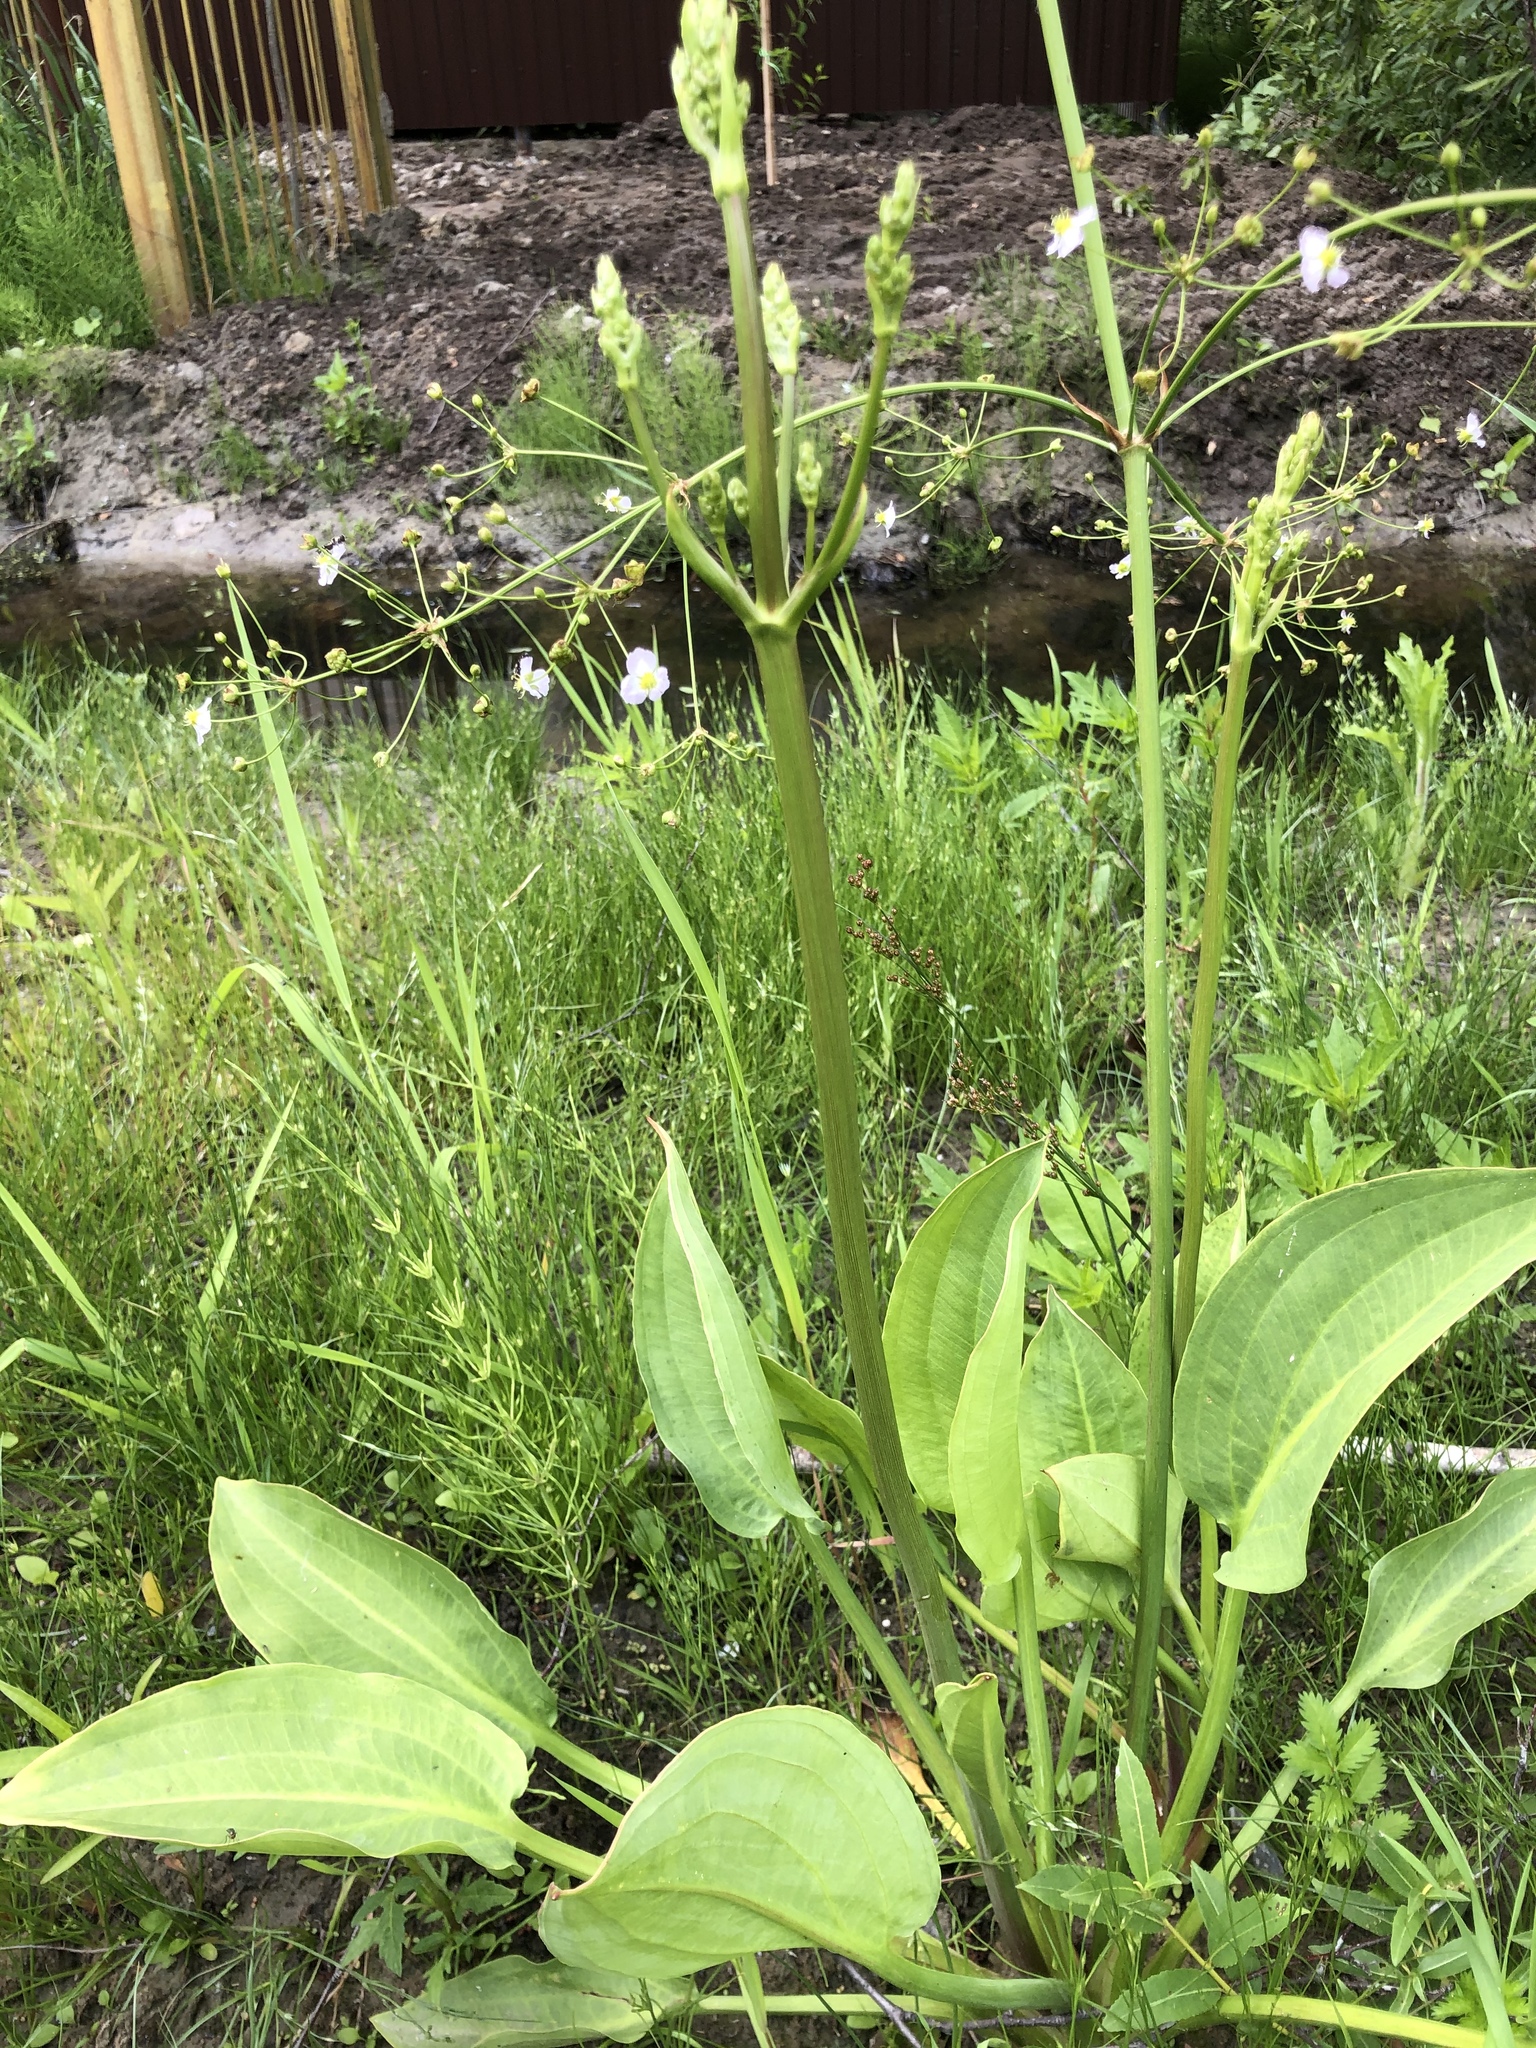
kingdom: Plantae
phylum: Tracheophyta
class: Liliopsida
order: Alismatales
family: Alismataceae
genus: Alisma
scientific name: Alisma plantago-aquatica
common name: Water-plantain
